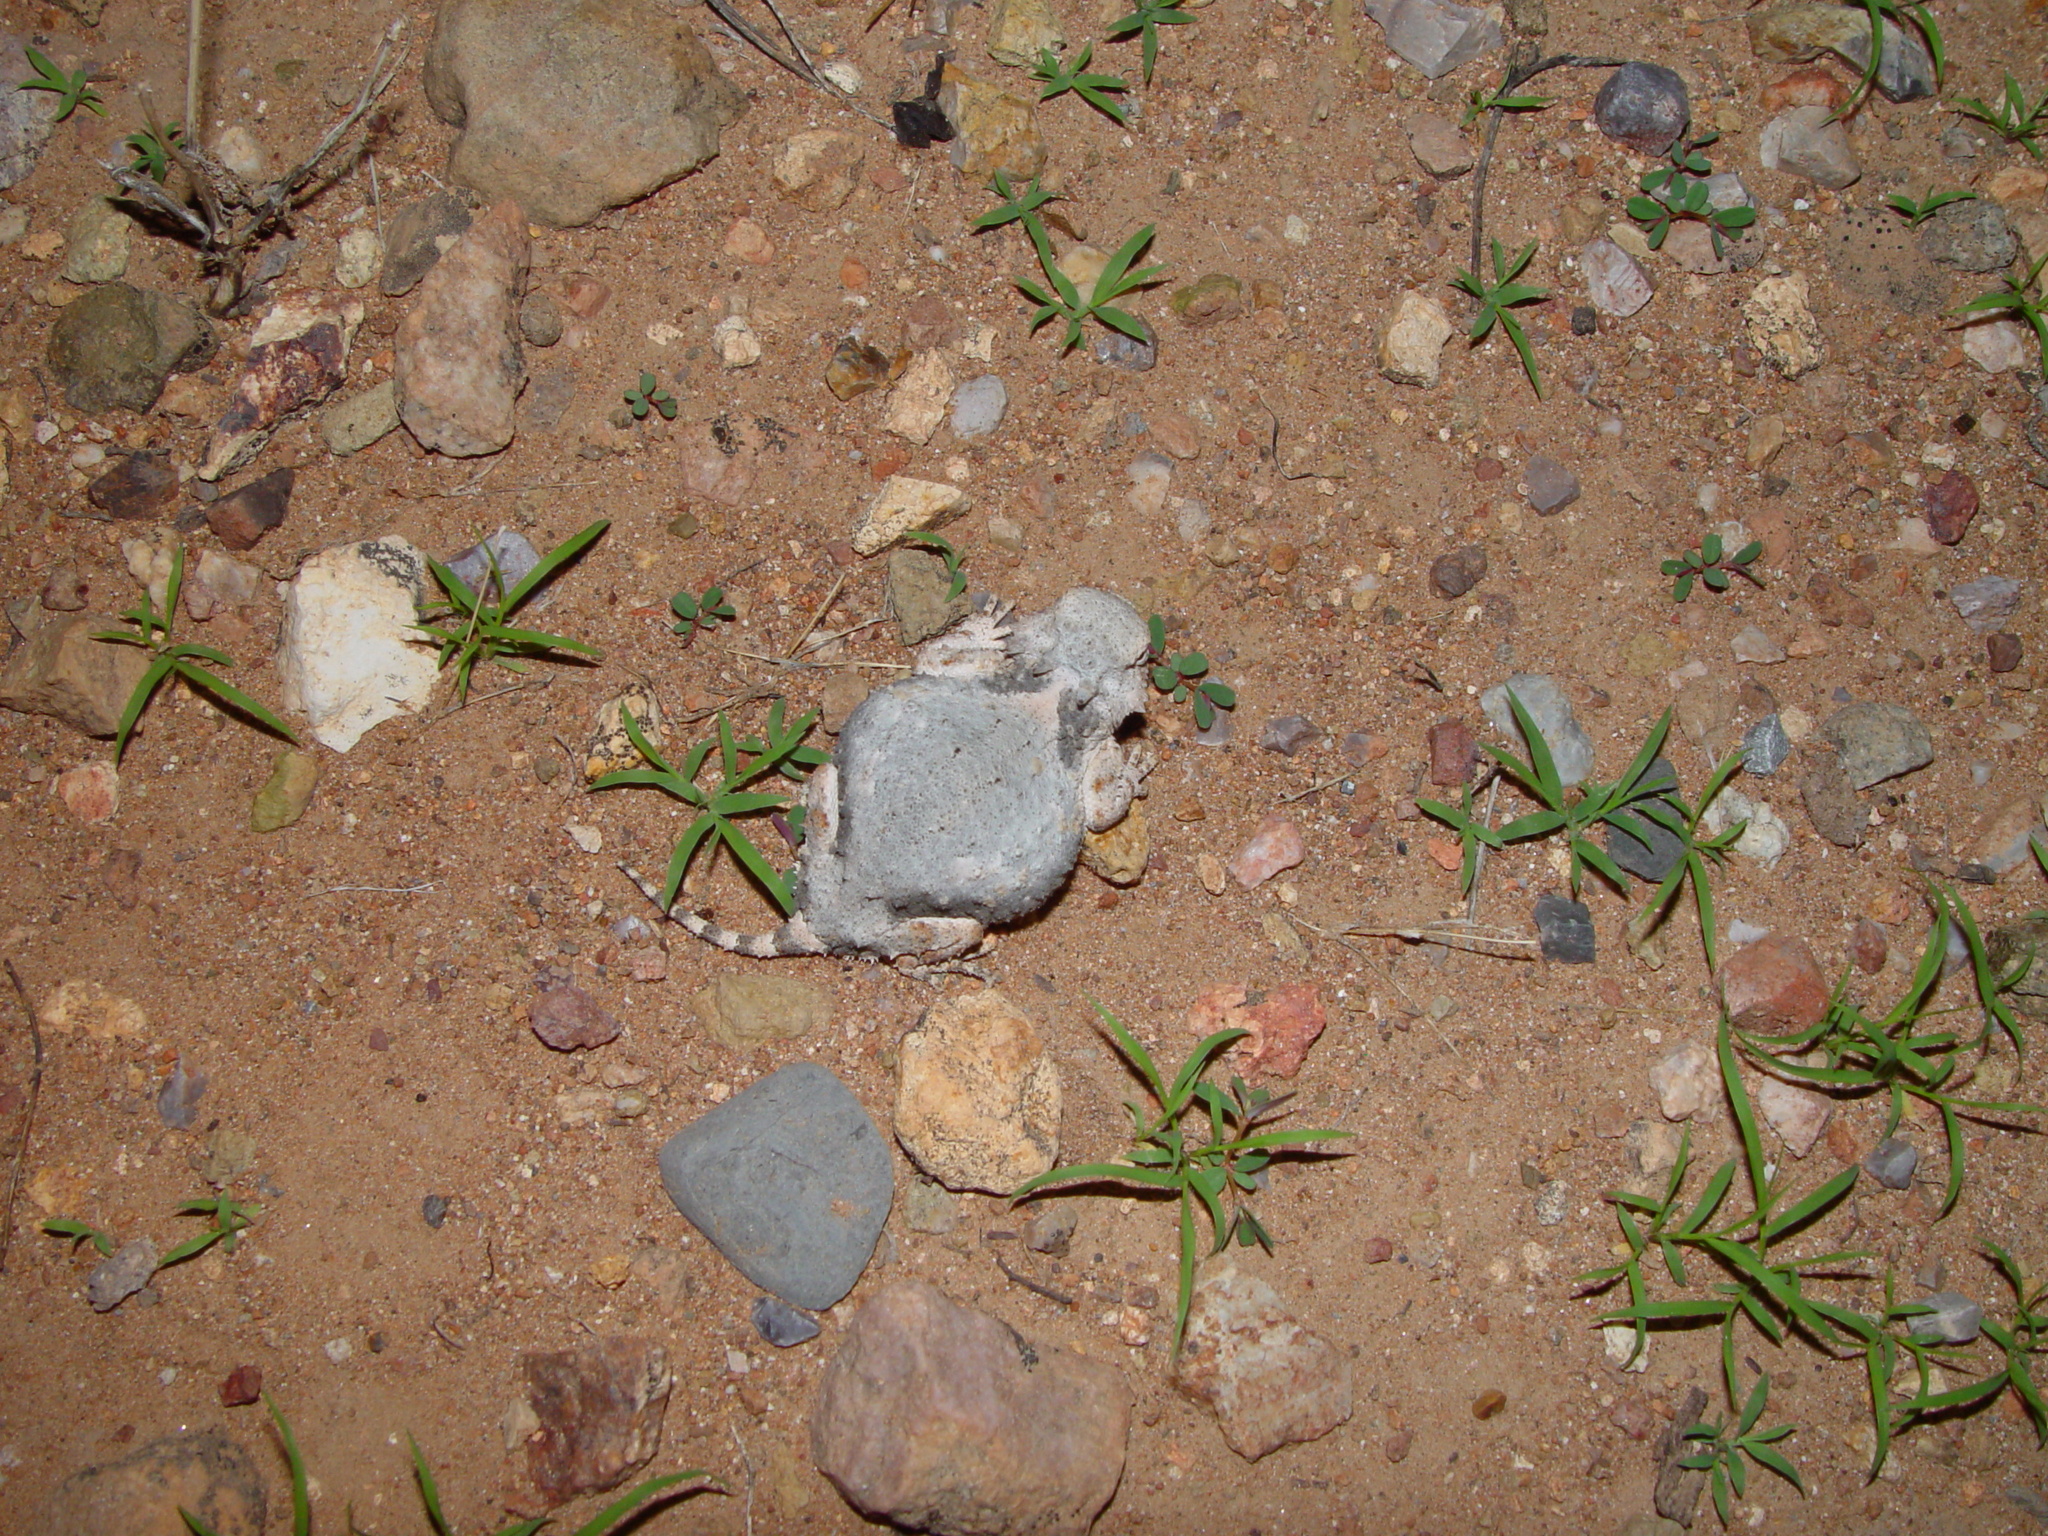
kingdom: Animalia
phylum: Chordata
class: Squamata
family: Phrynosomatidae
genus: Phrynosoma
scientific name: Phrynosoma modestum
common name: Roundtail horned lizard
